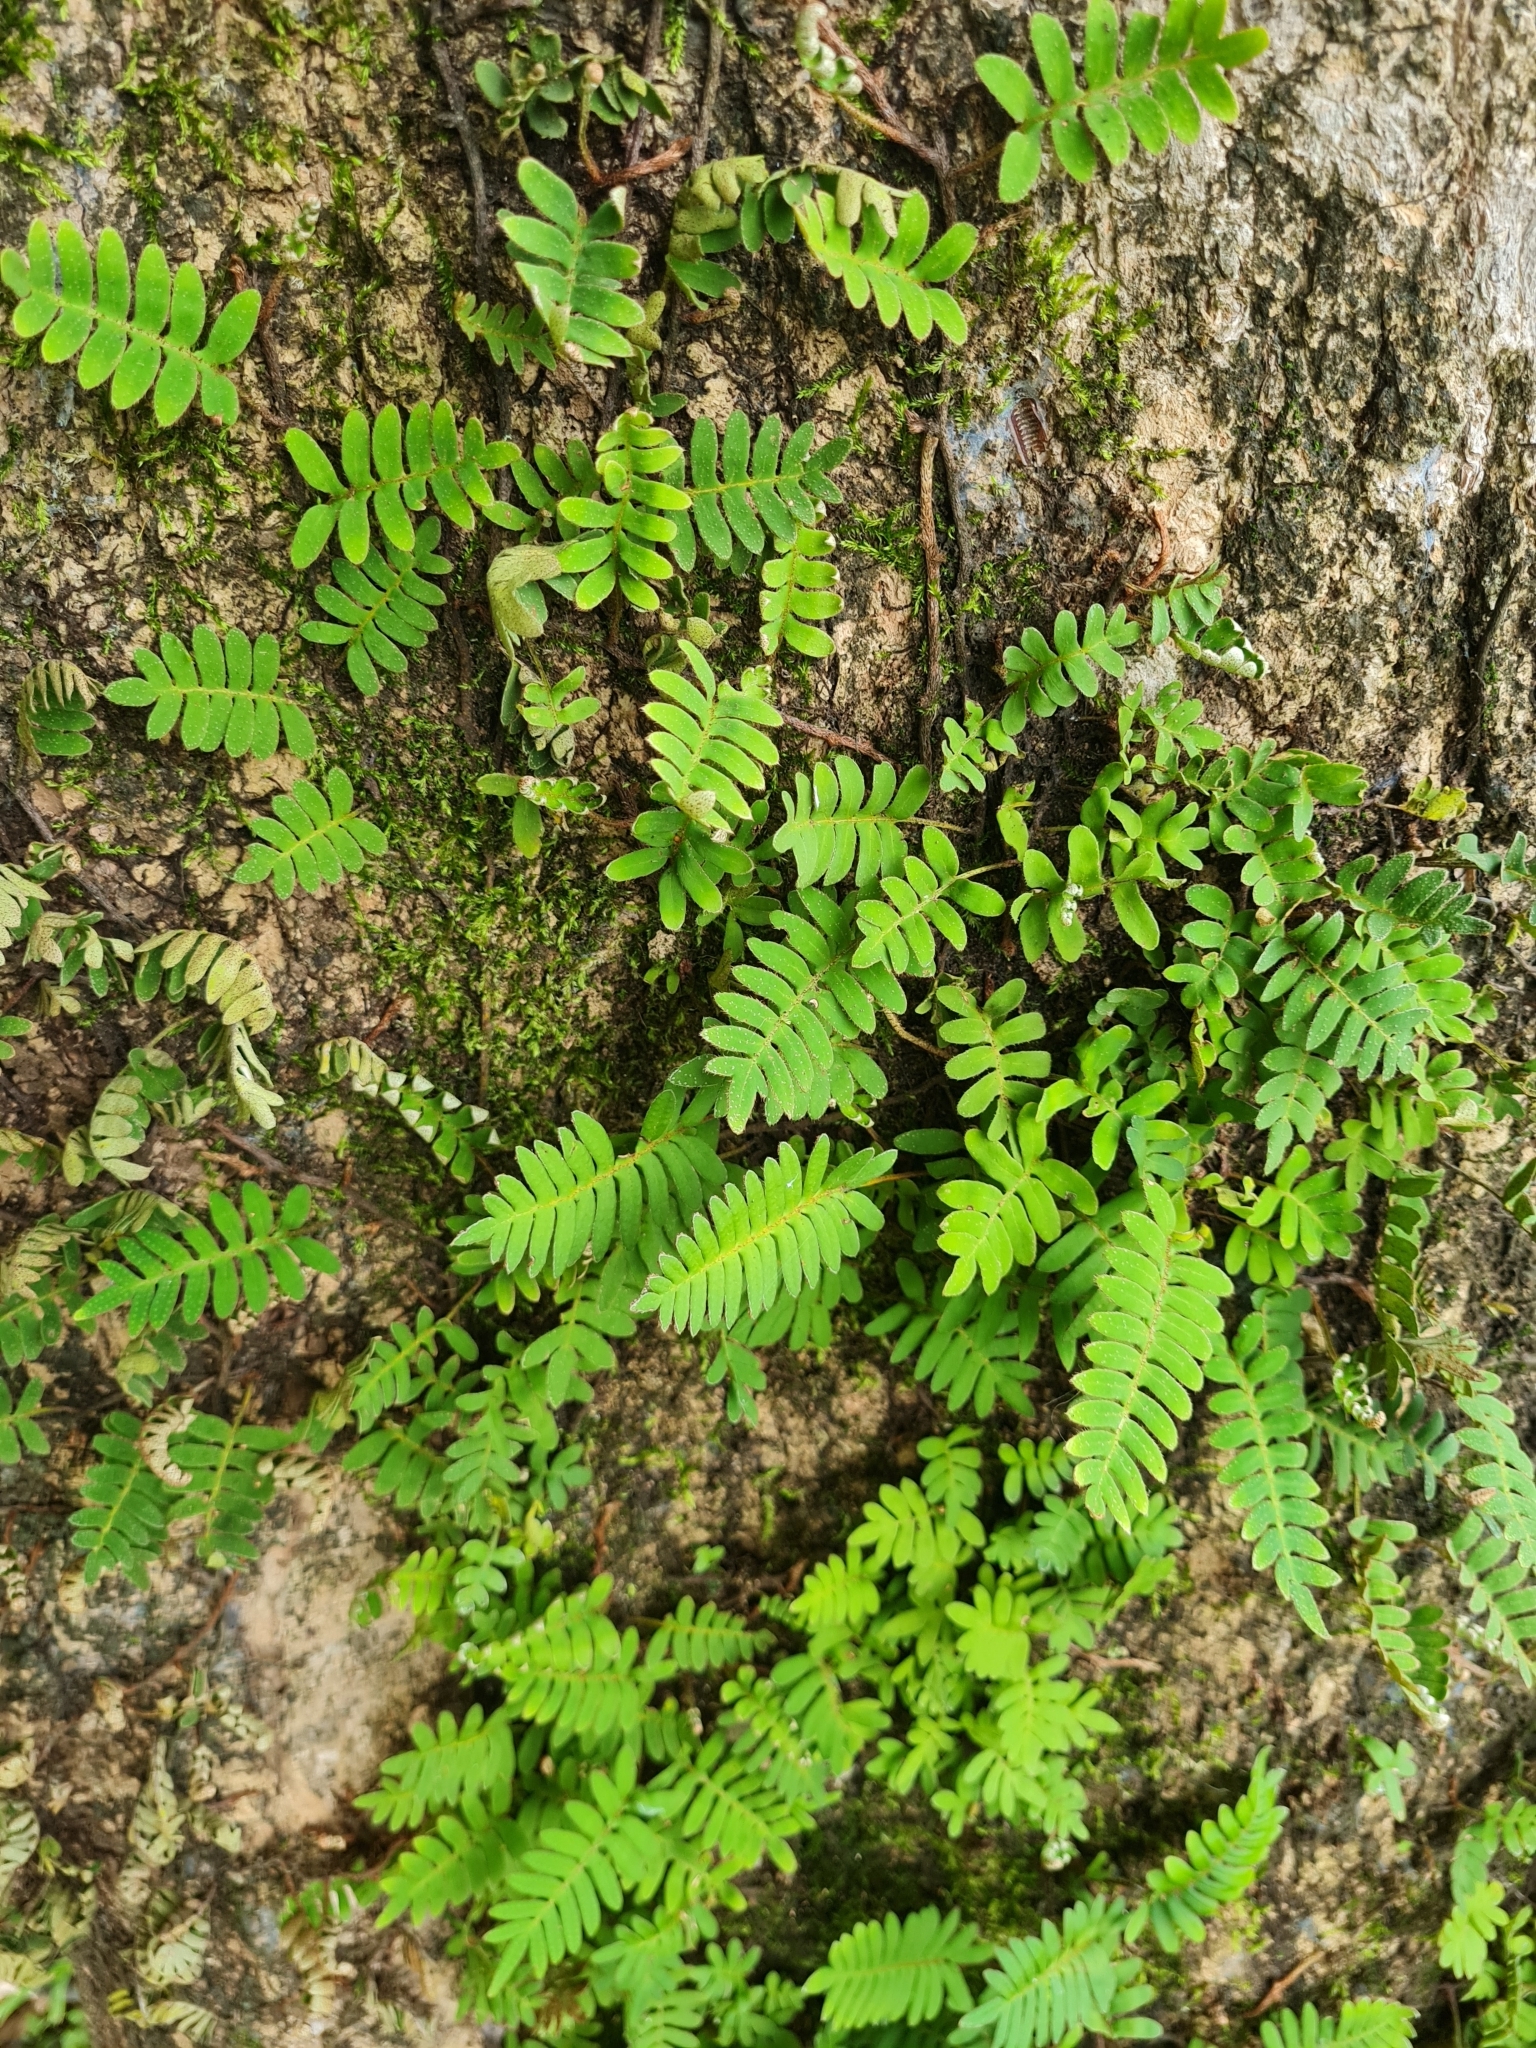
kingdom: Plantae
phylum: Tracheophyta
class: Polypodiopsida
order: Polypodiales
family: Polypodiaceae
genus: Pleopeltis
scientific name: Pleopeltis polypodioides
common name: Resurrection fern
